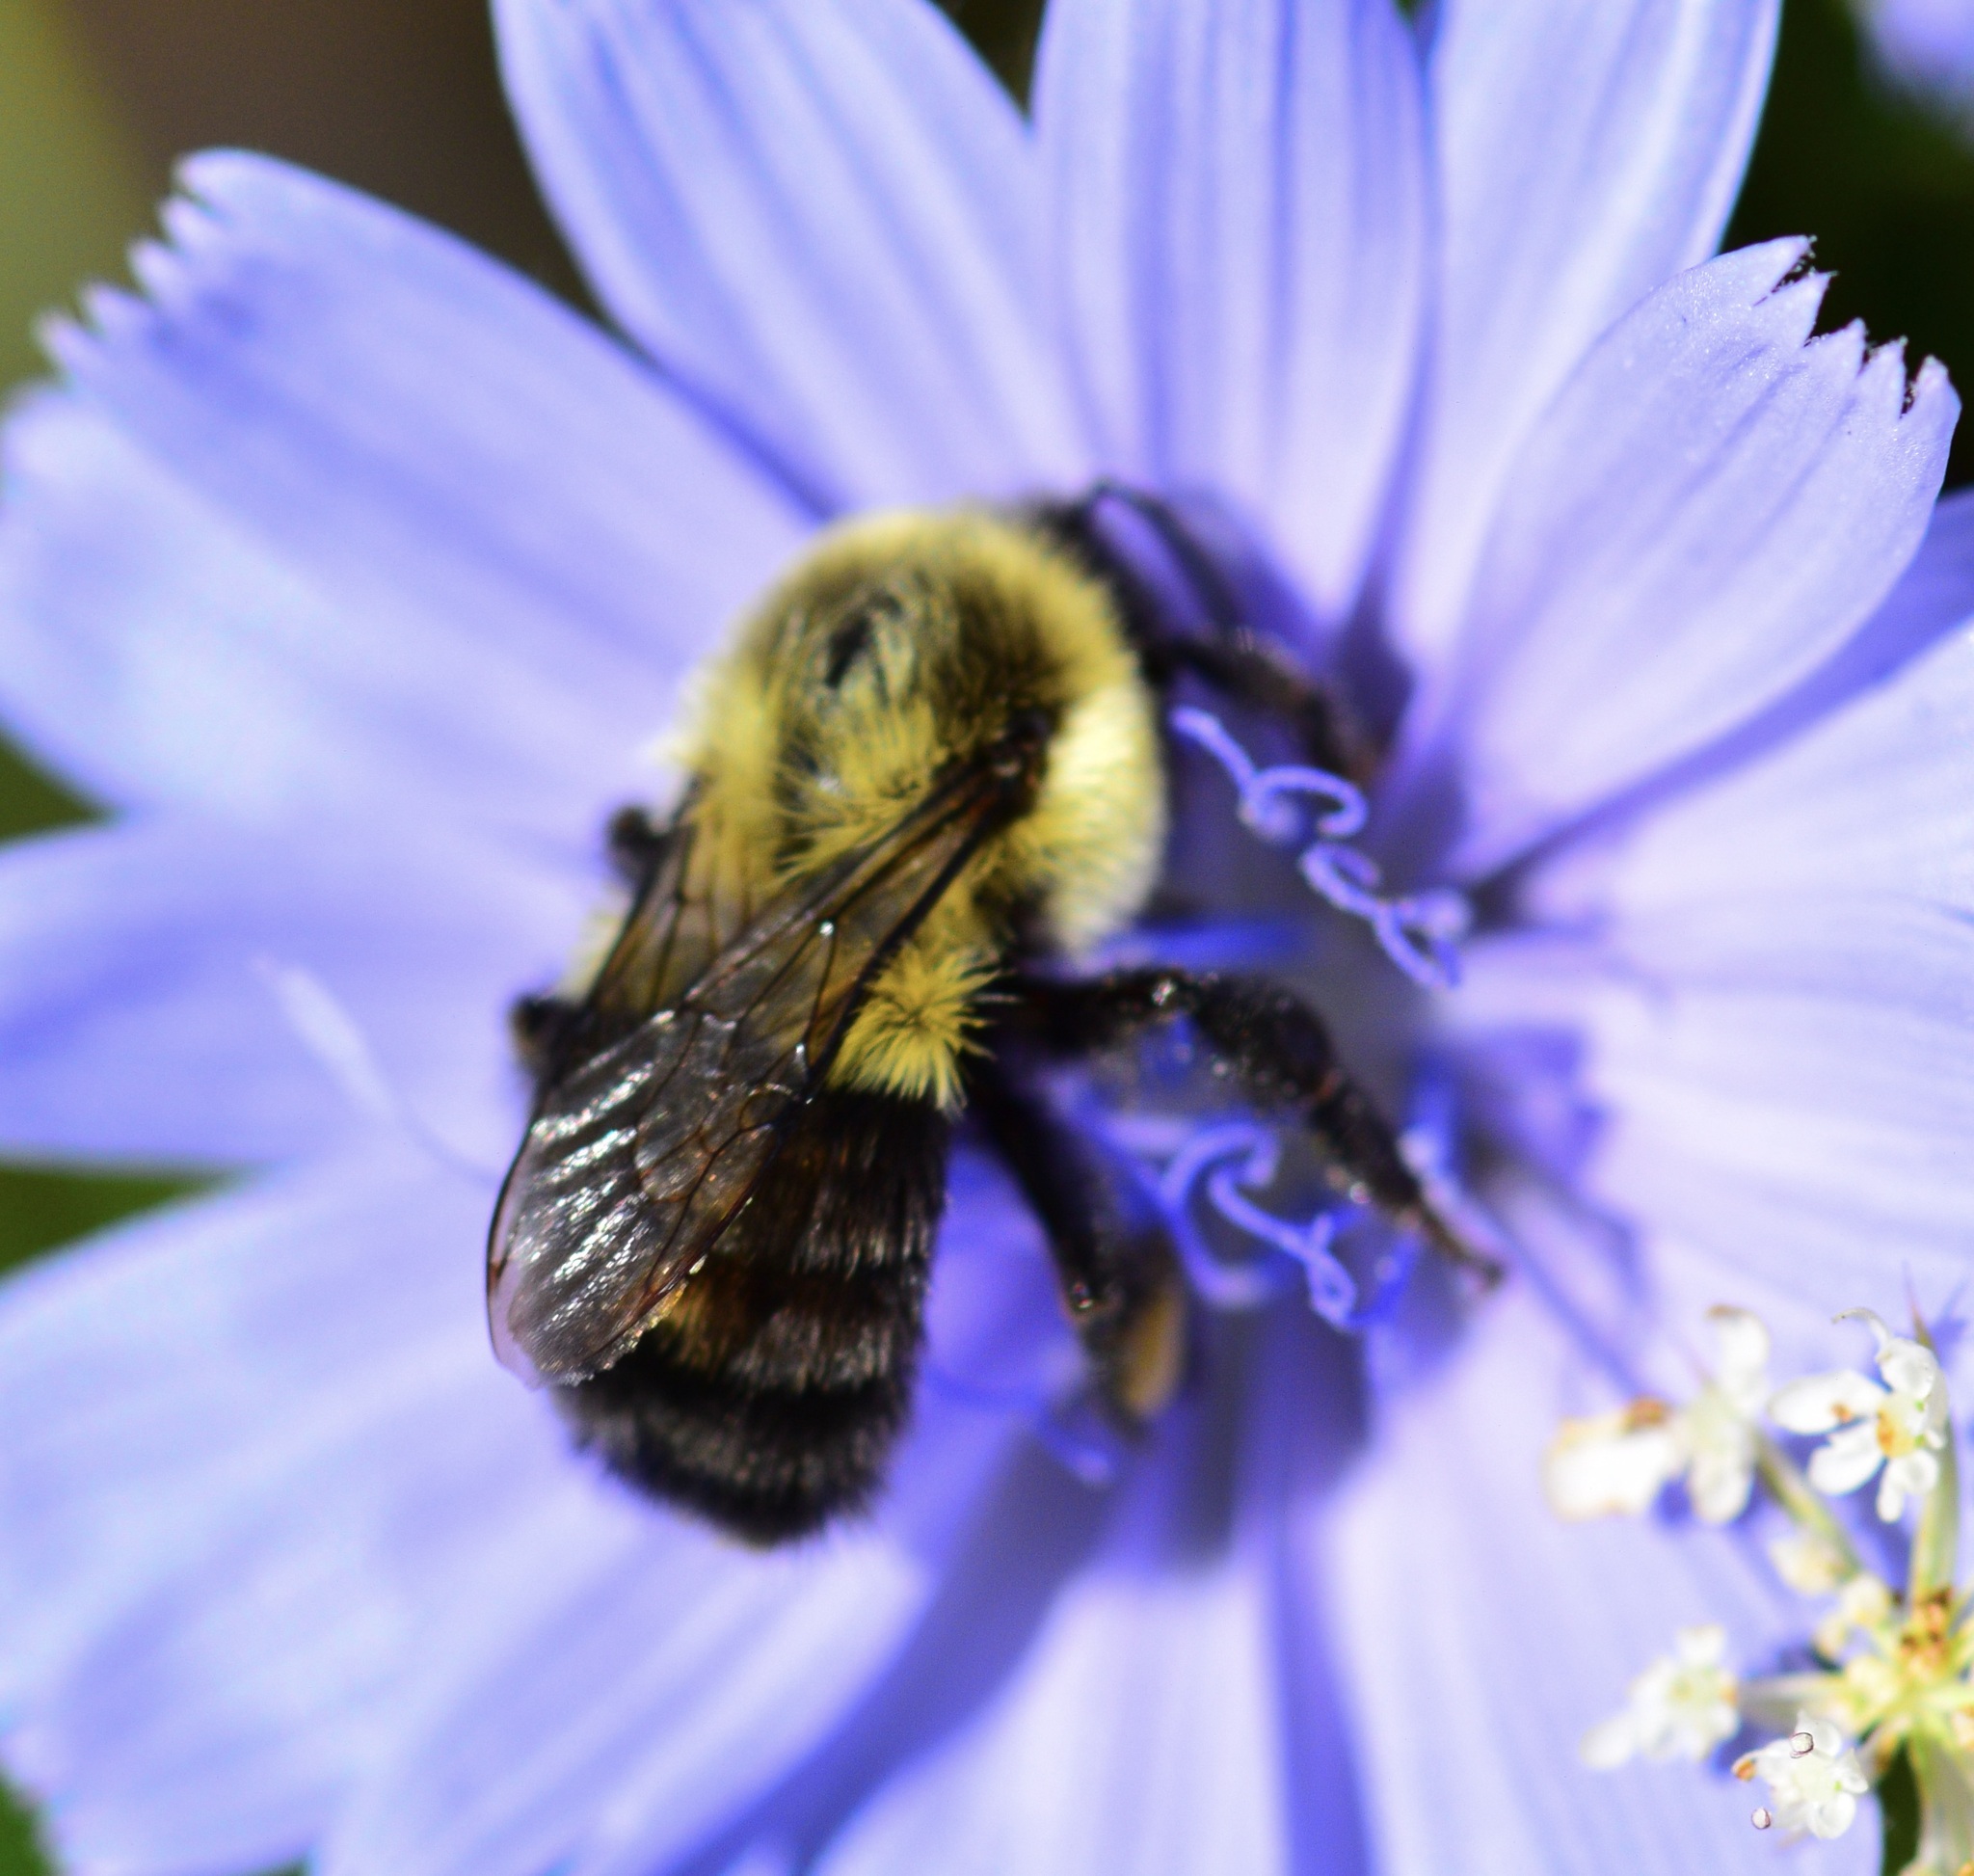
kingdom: Animalia
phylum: Arthropoda
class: Insecta
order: Hymenoptera
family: Apidae
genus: Bombus
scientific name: Bombus impatiens
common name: Common eastern bumble bee
